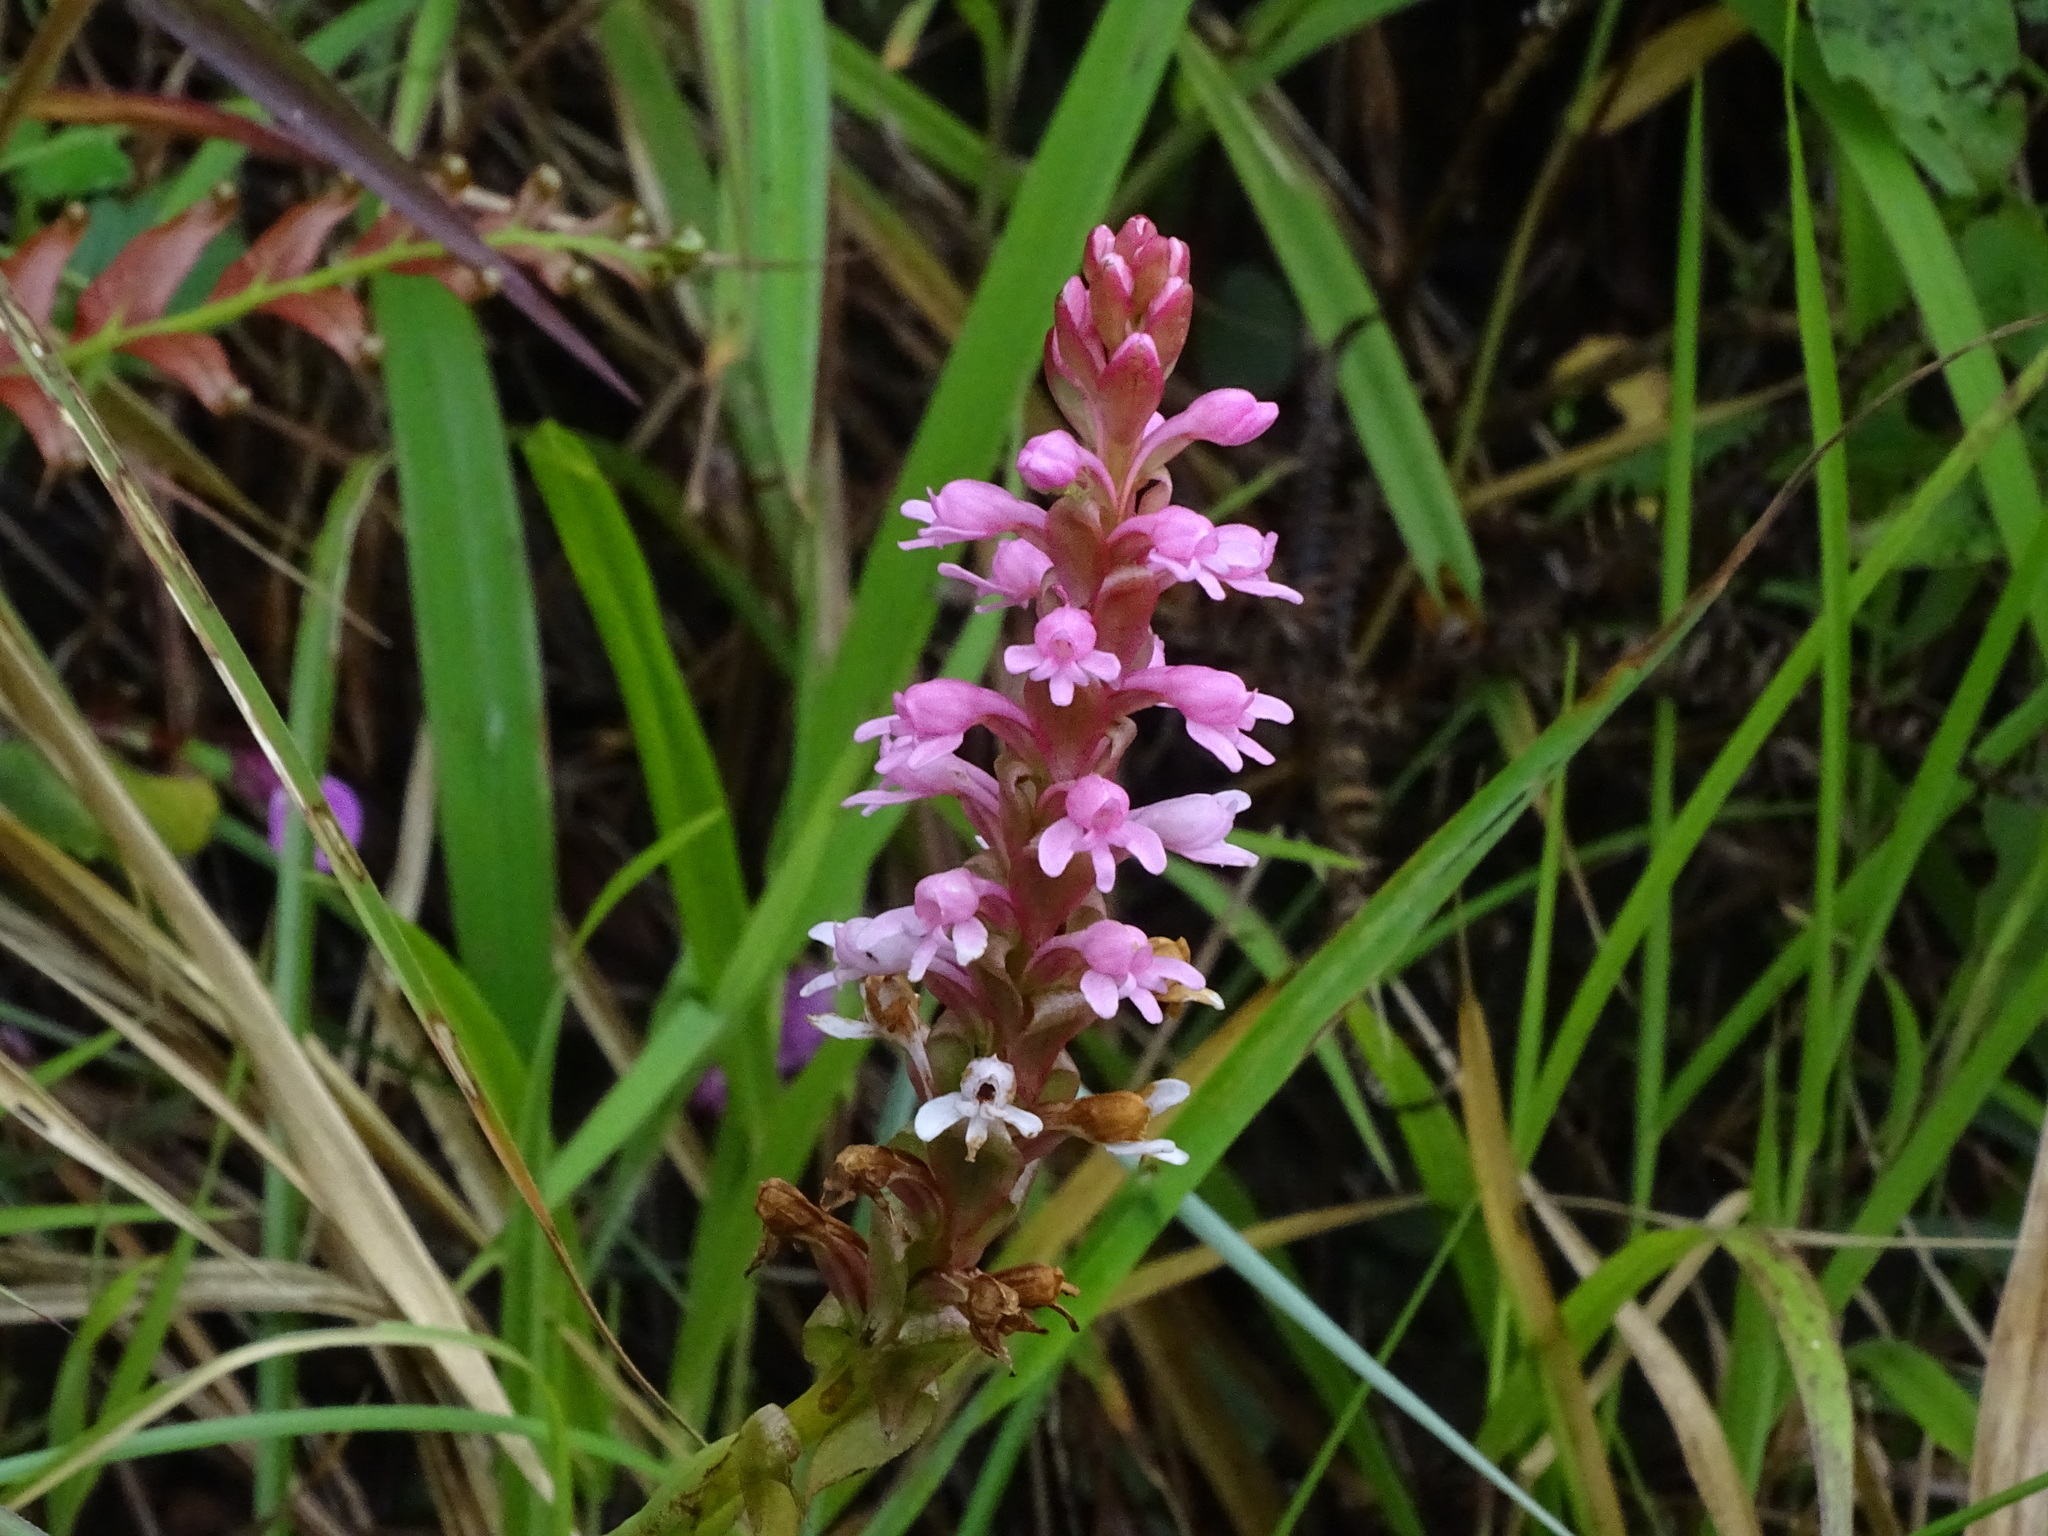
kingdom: Plantae
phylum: Tracheophyta
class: Liliopsida
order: Asparagales
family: Orchidaceae
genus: Satyrium
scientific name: Satyrium nepalense
